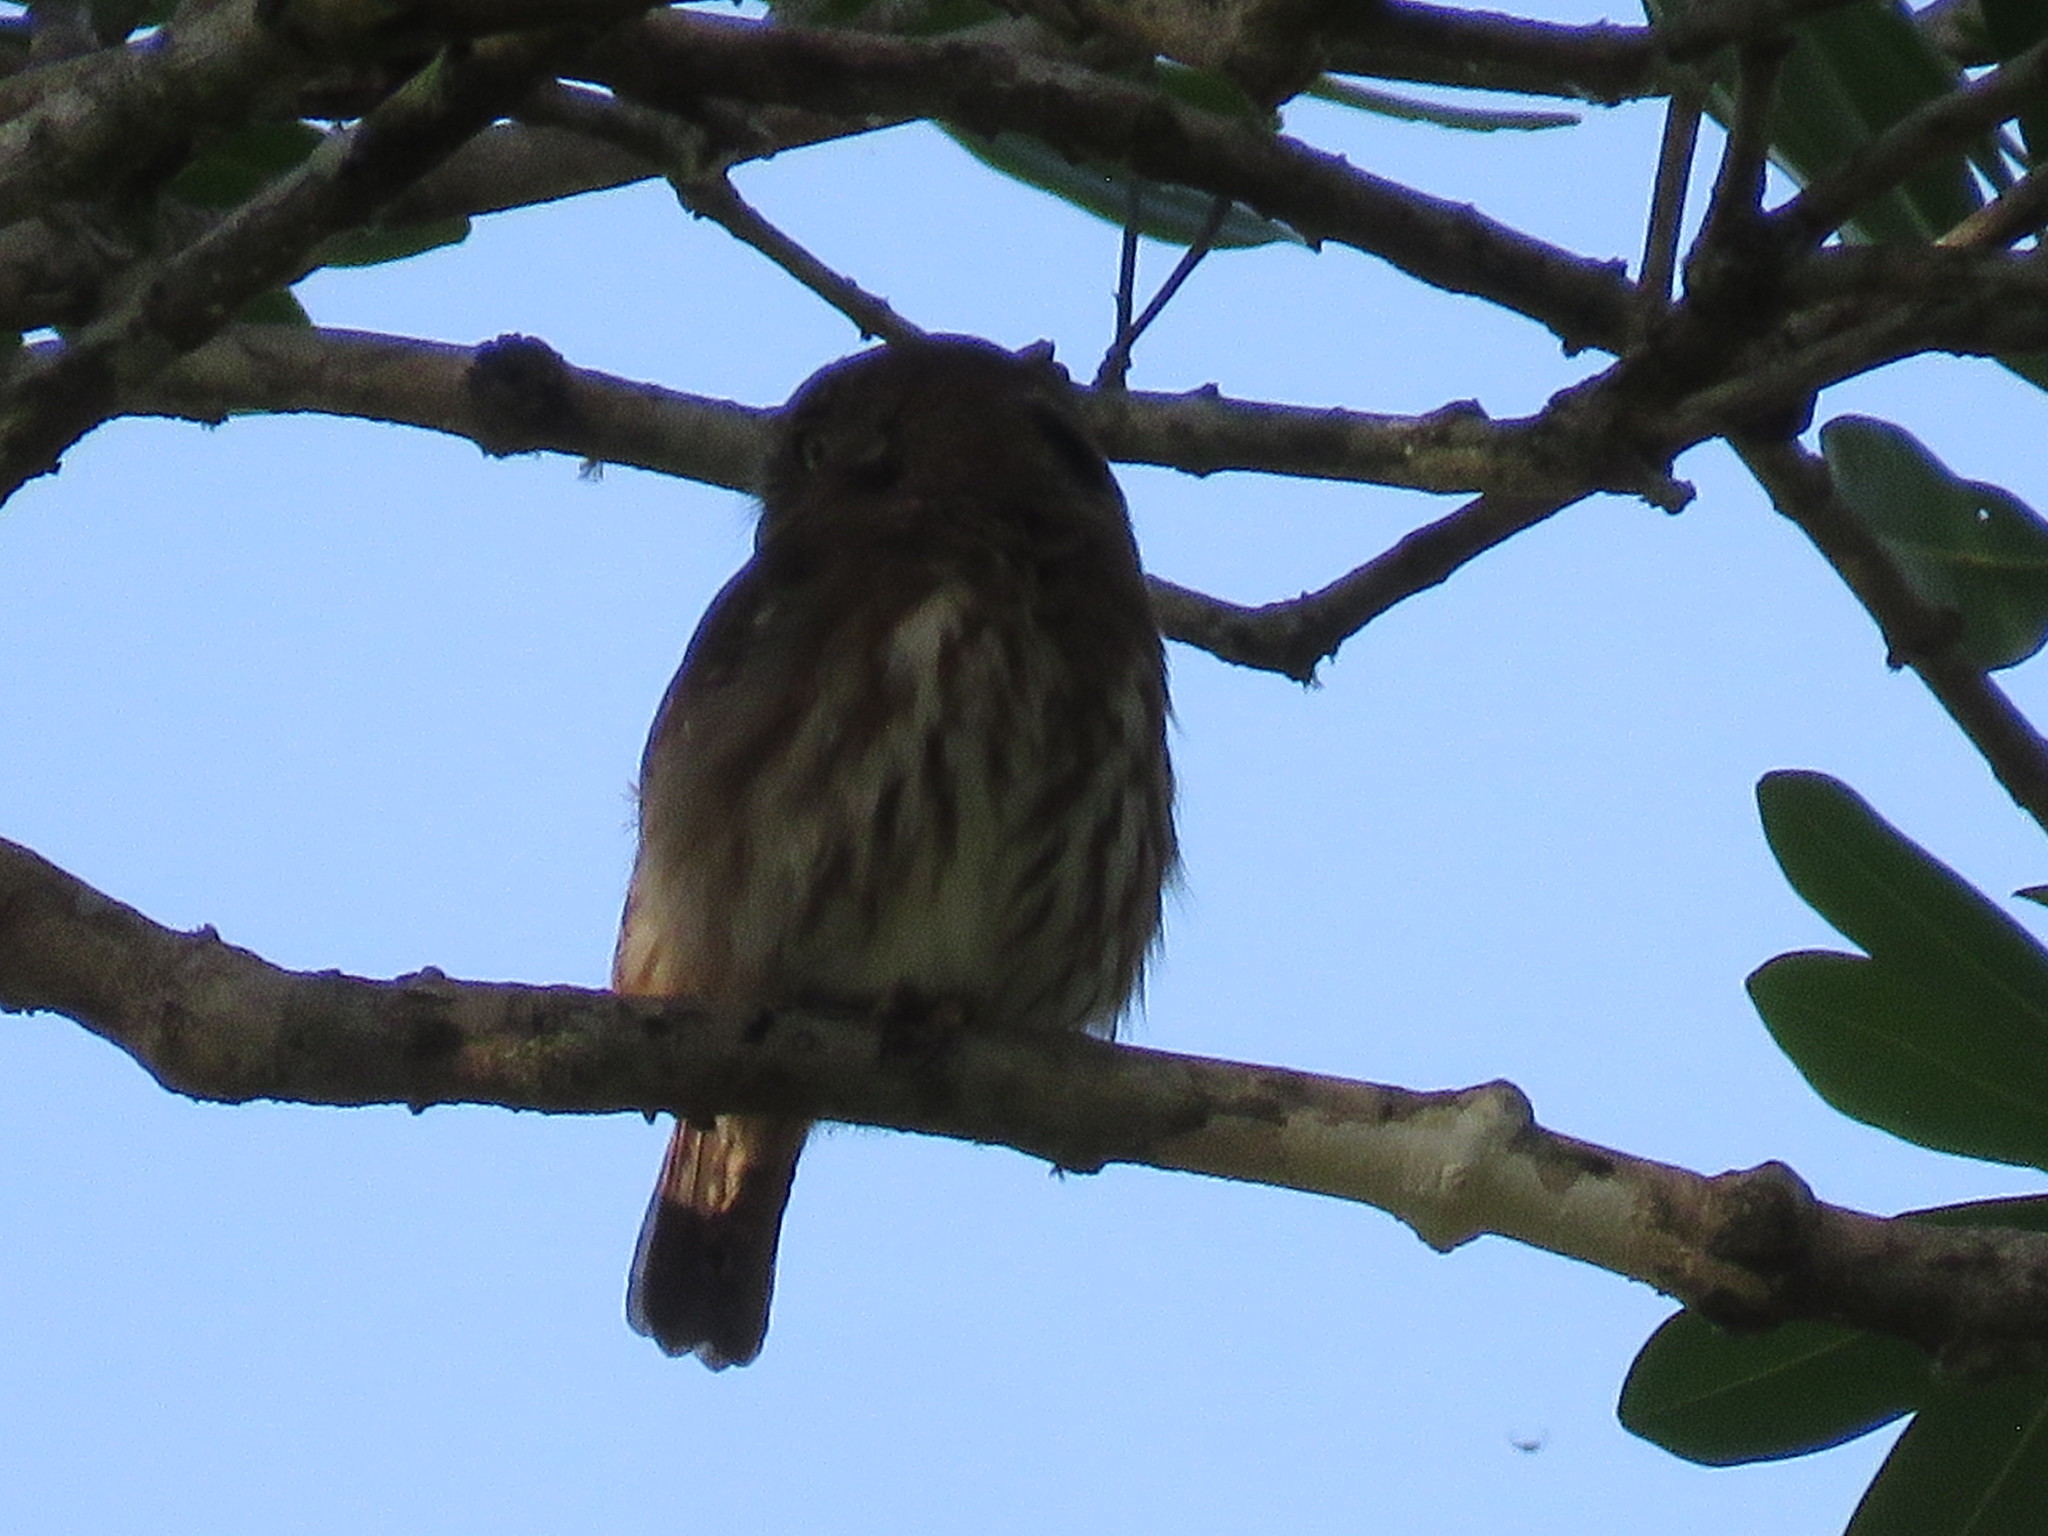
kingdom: Animalia
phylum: Chordata
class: Aves
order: Strigiformes
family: Strigidae
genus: Glaucidium
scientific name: Glaucidium brasilianum
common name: Ferruginous pygmy-owl
